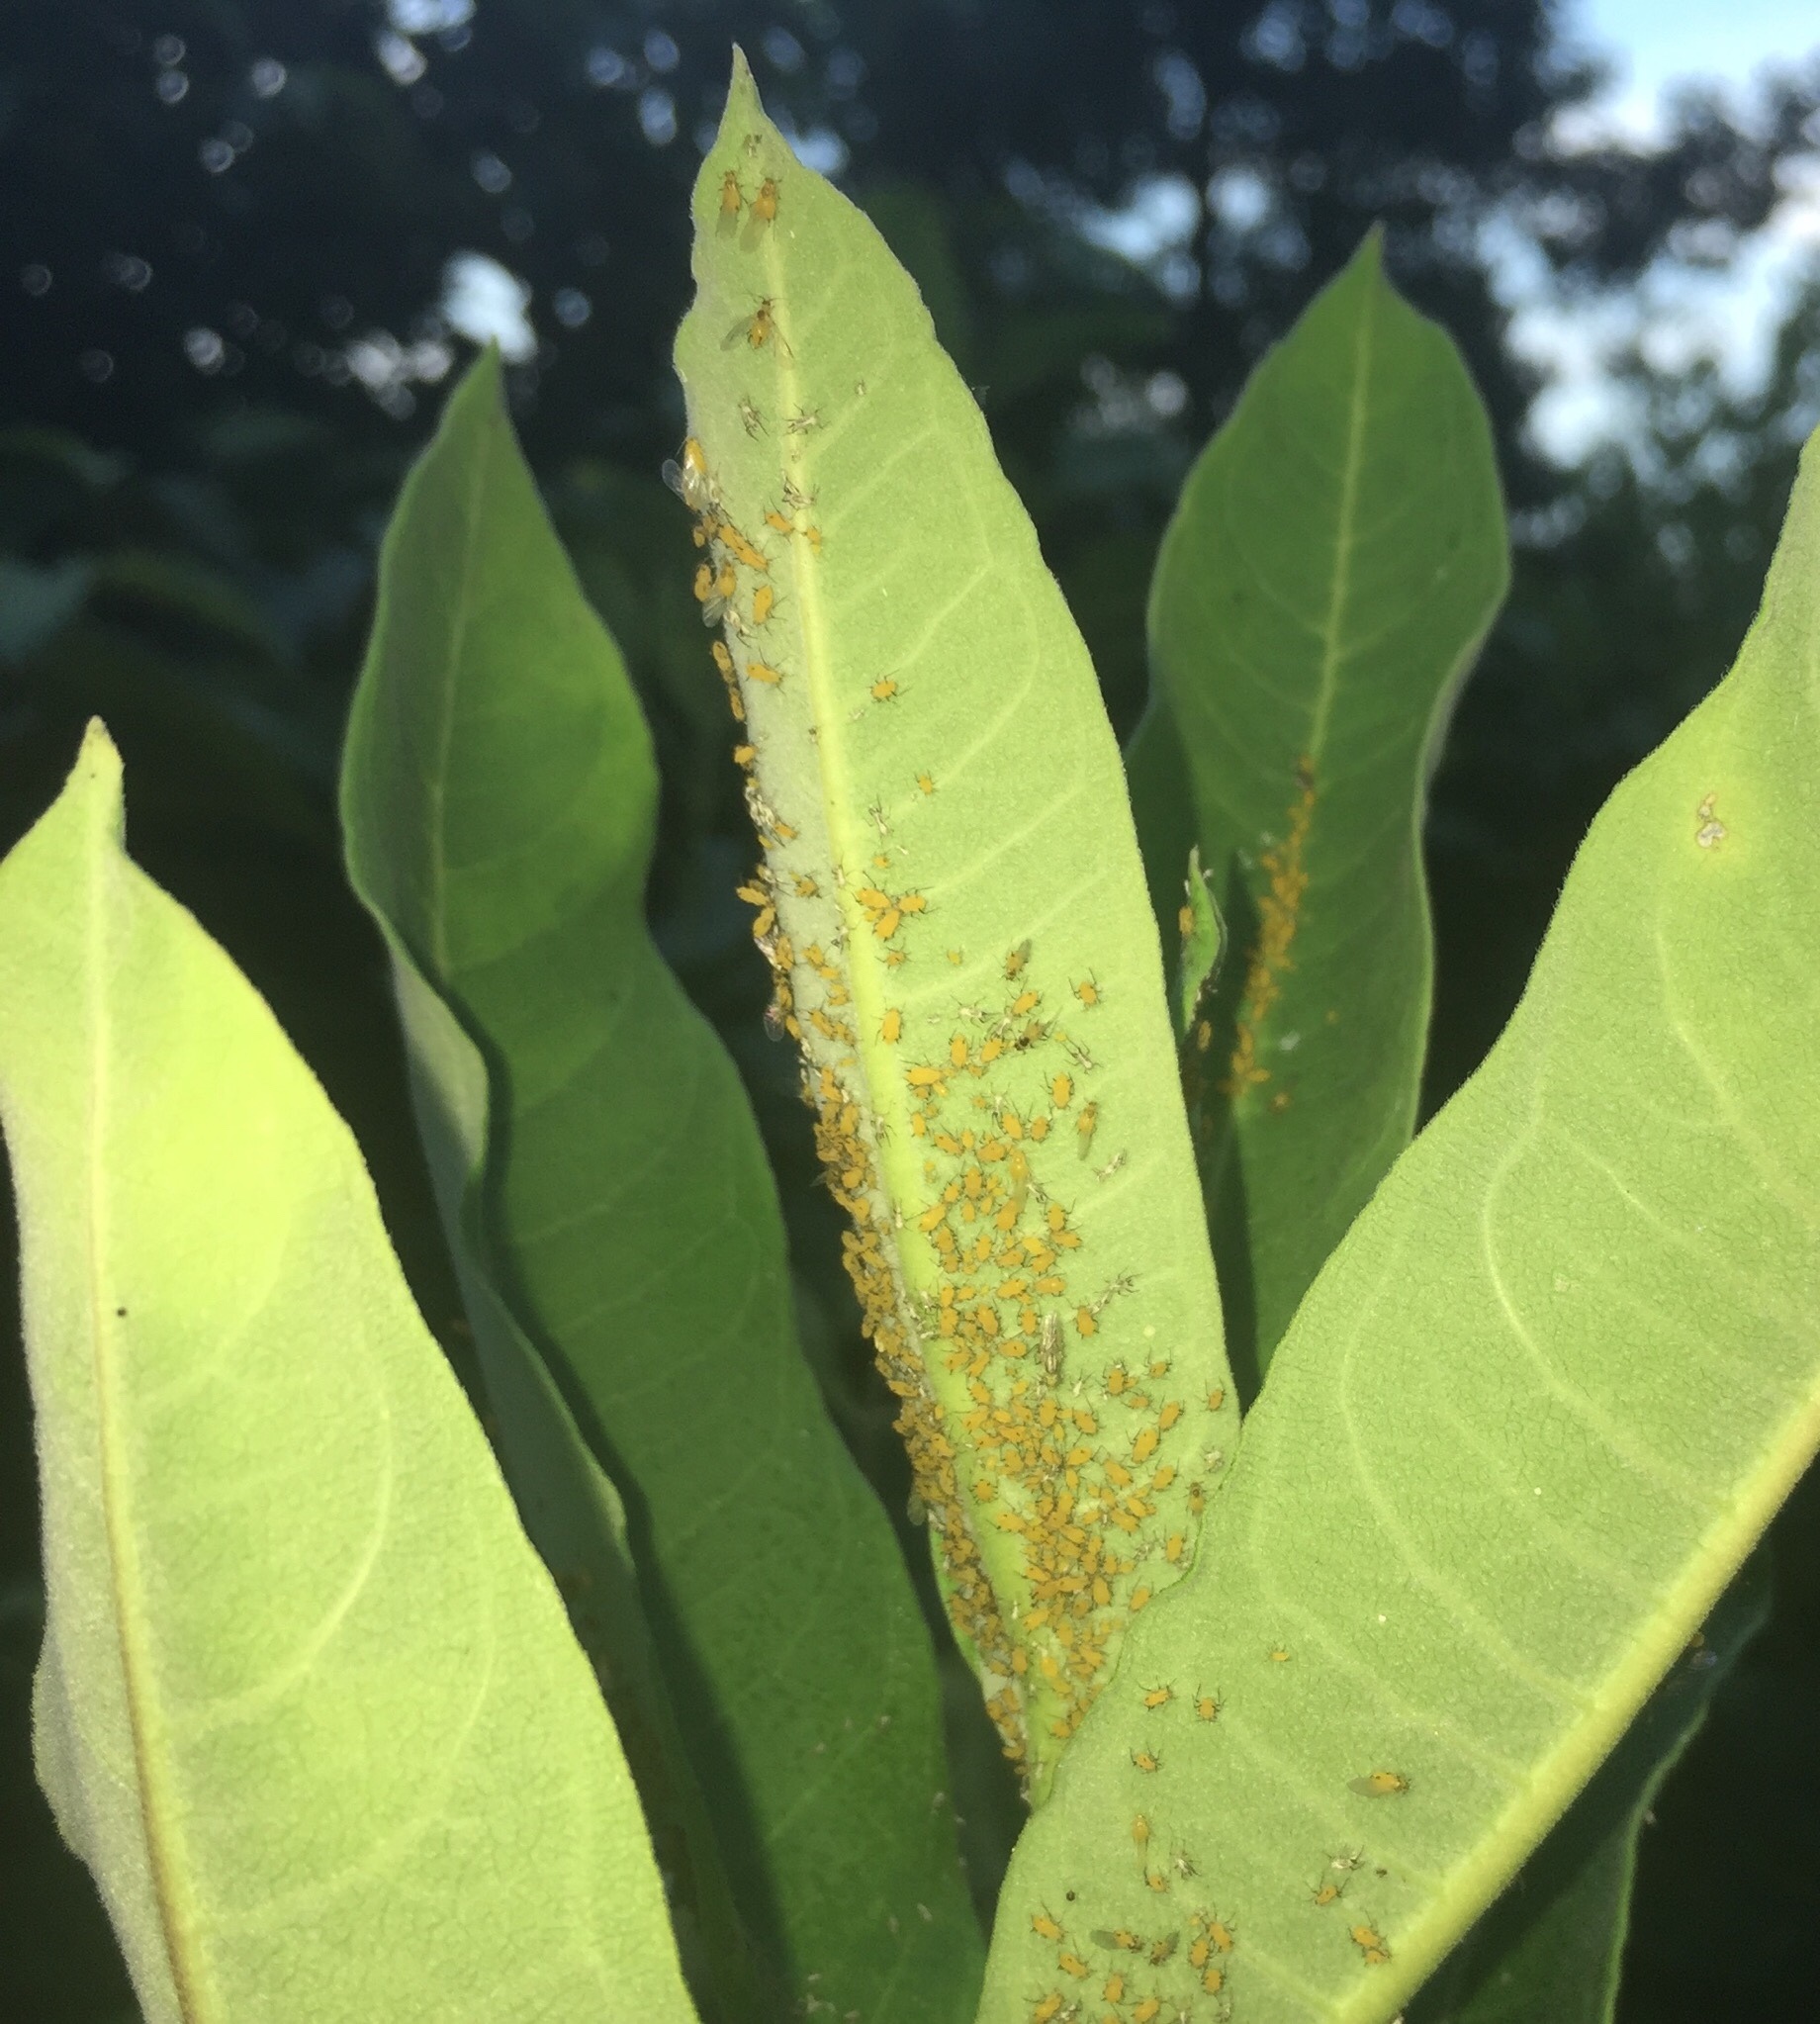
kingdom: Animalia
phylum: Arthropoda
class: Insecta
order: Hemiptera
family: Aphididae
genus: Aphis
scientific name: Aphis nerii
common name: Oleander aphid
